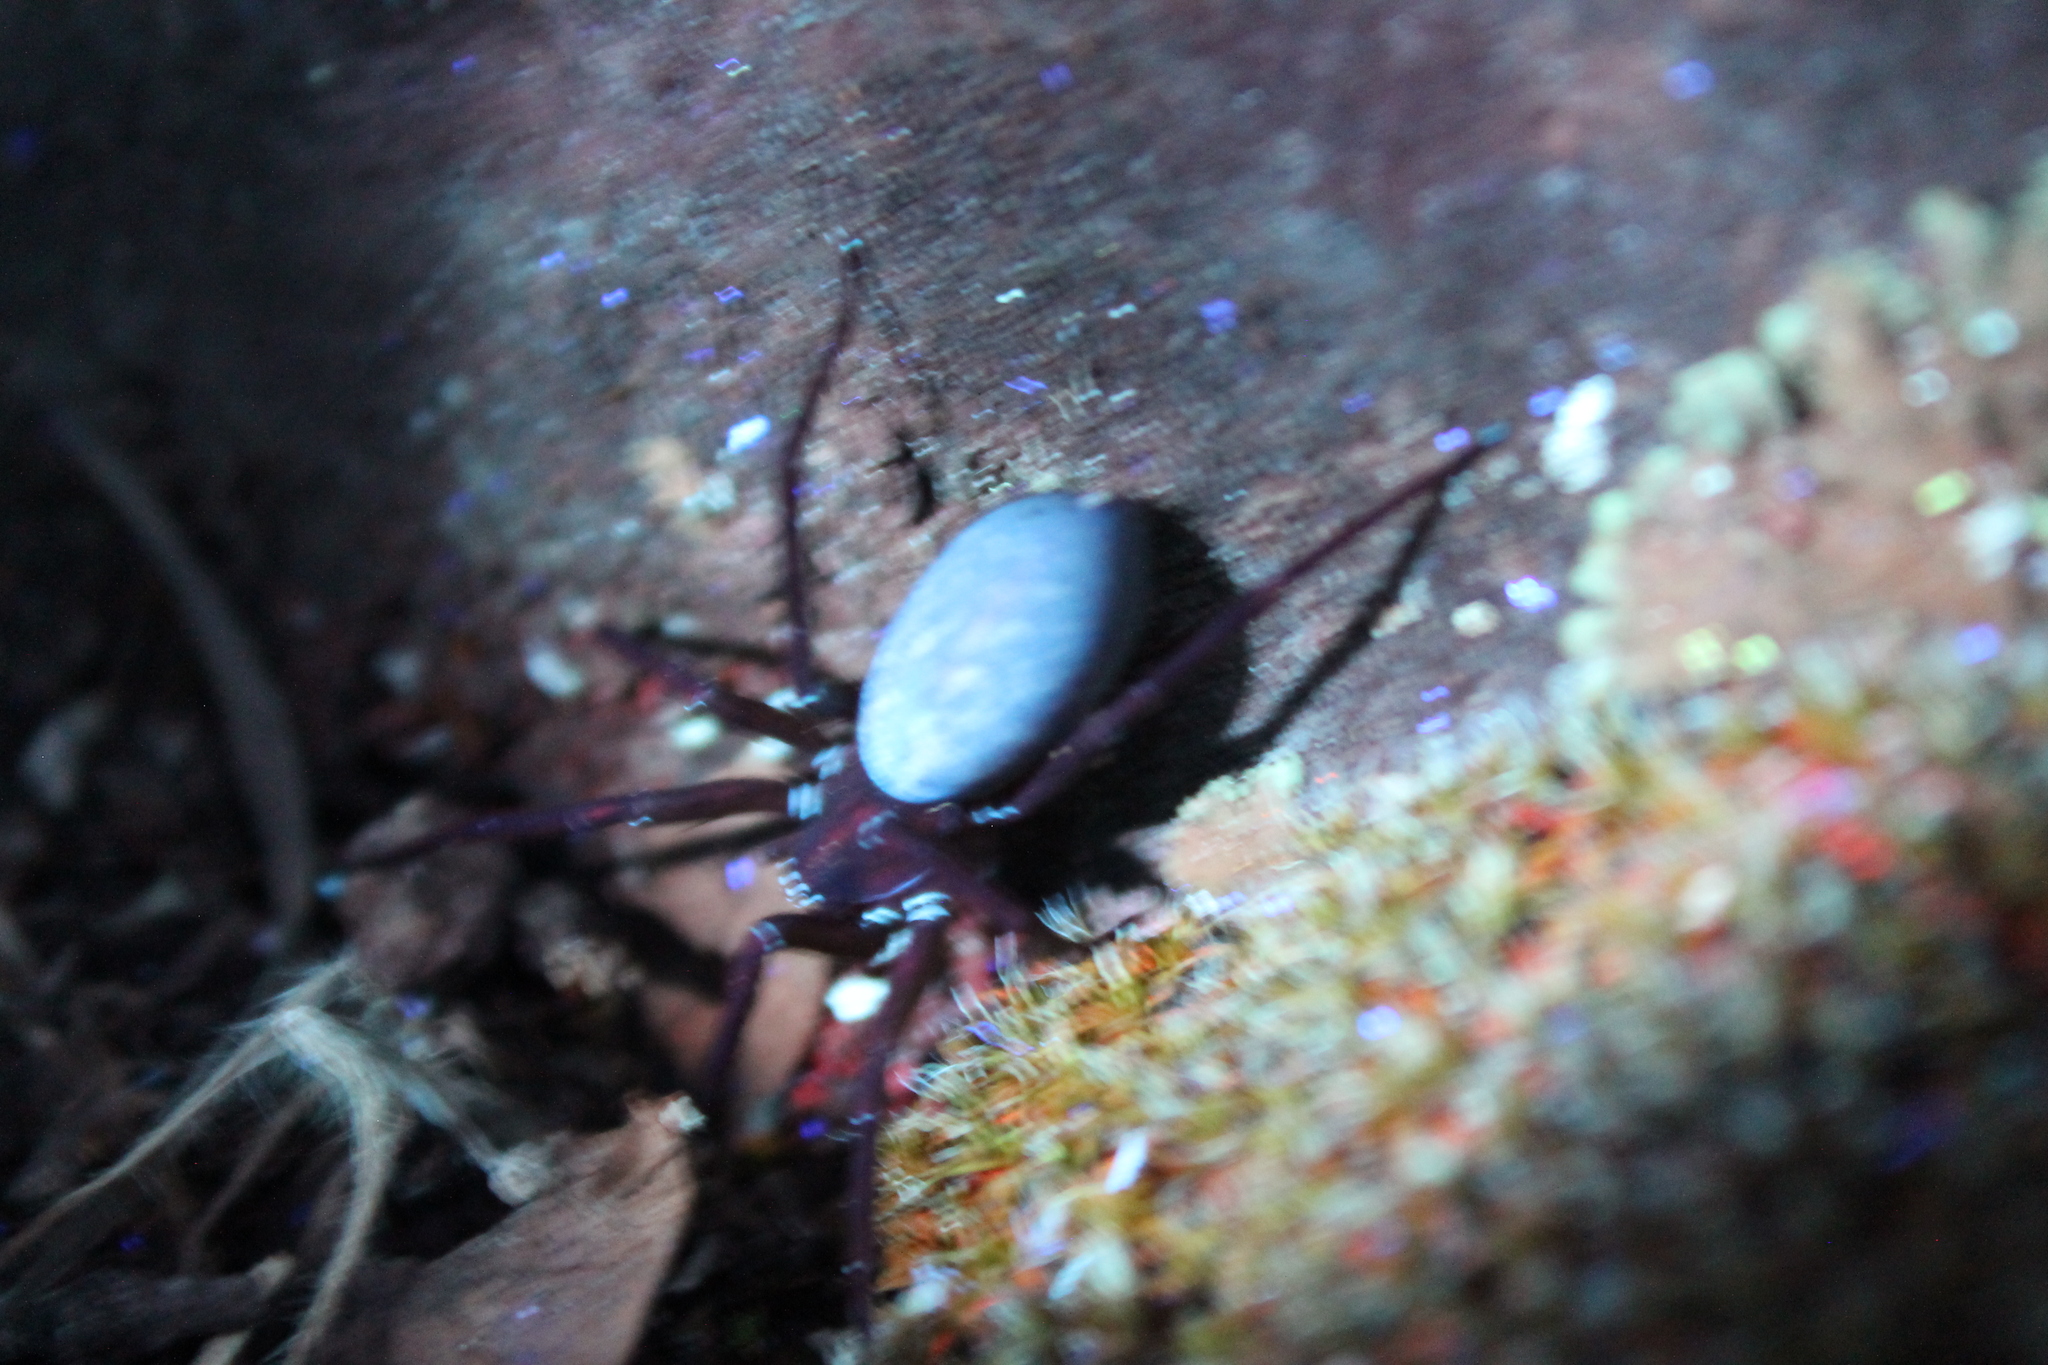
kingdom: Animalia
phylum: Arthropoda
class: Arachnida
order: Araneae
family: Zoropsidae
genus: Anachemmis
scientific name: Anachemmis linsdalei
